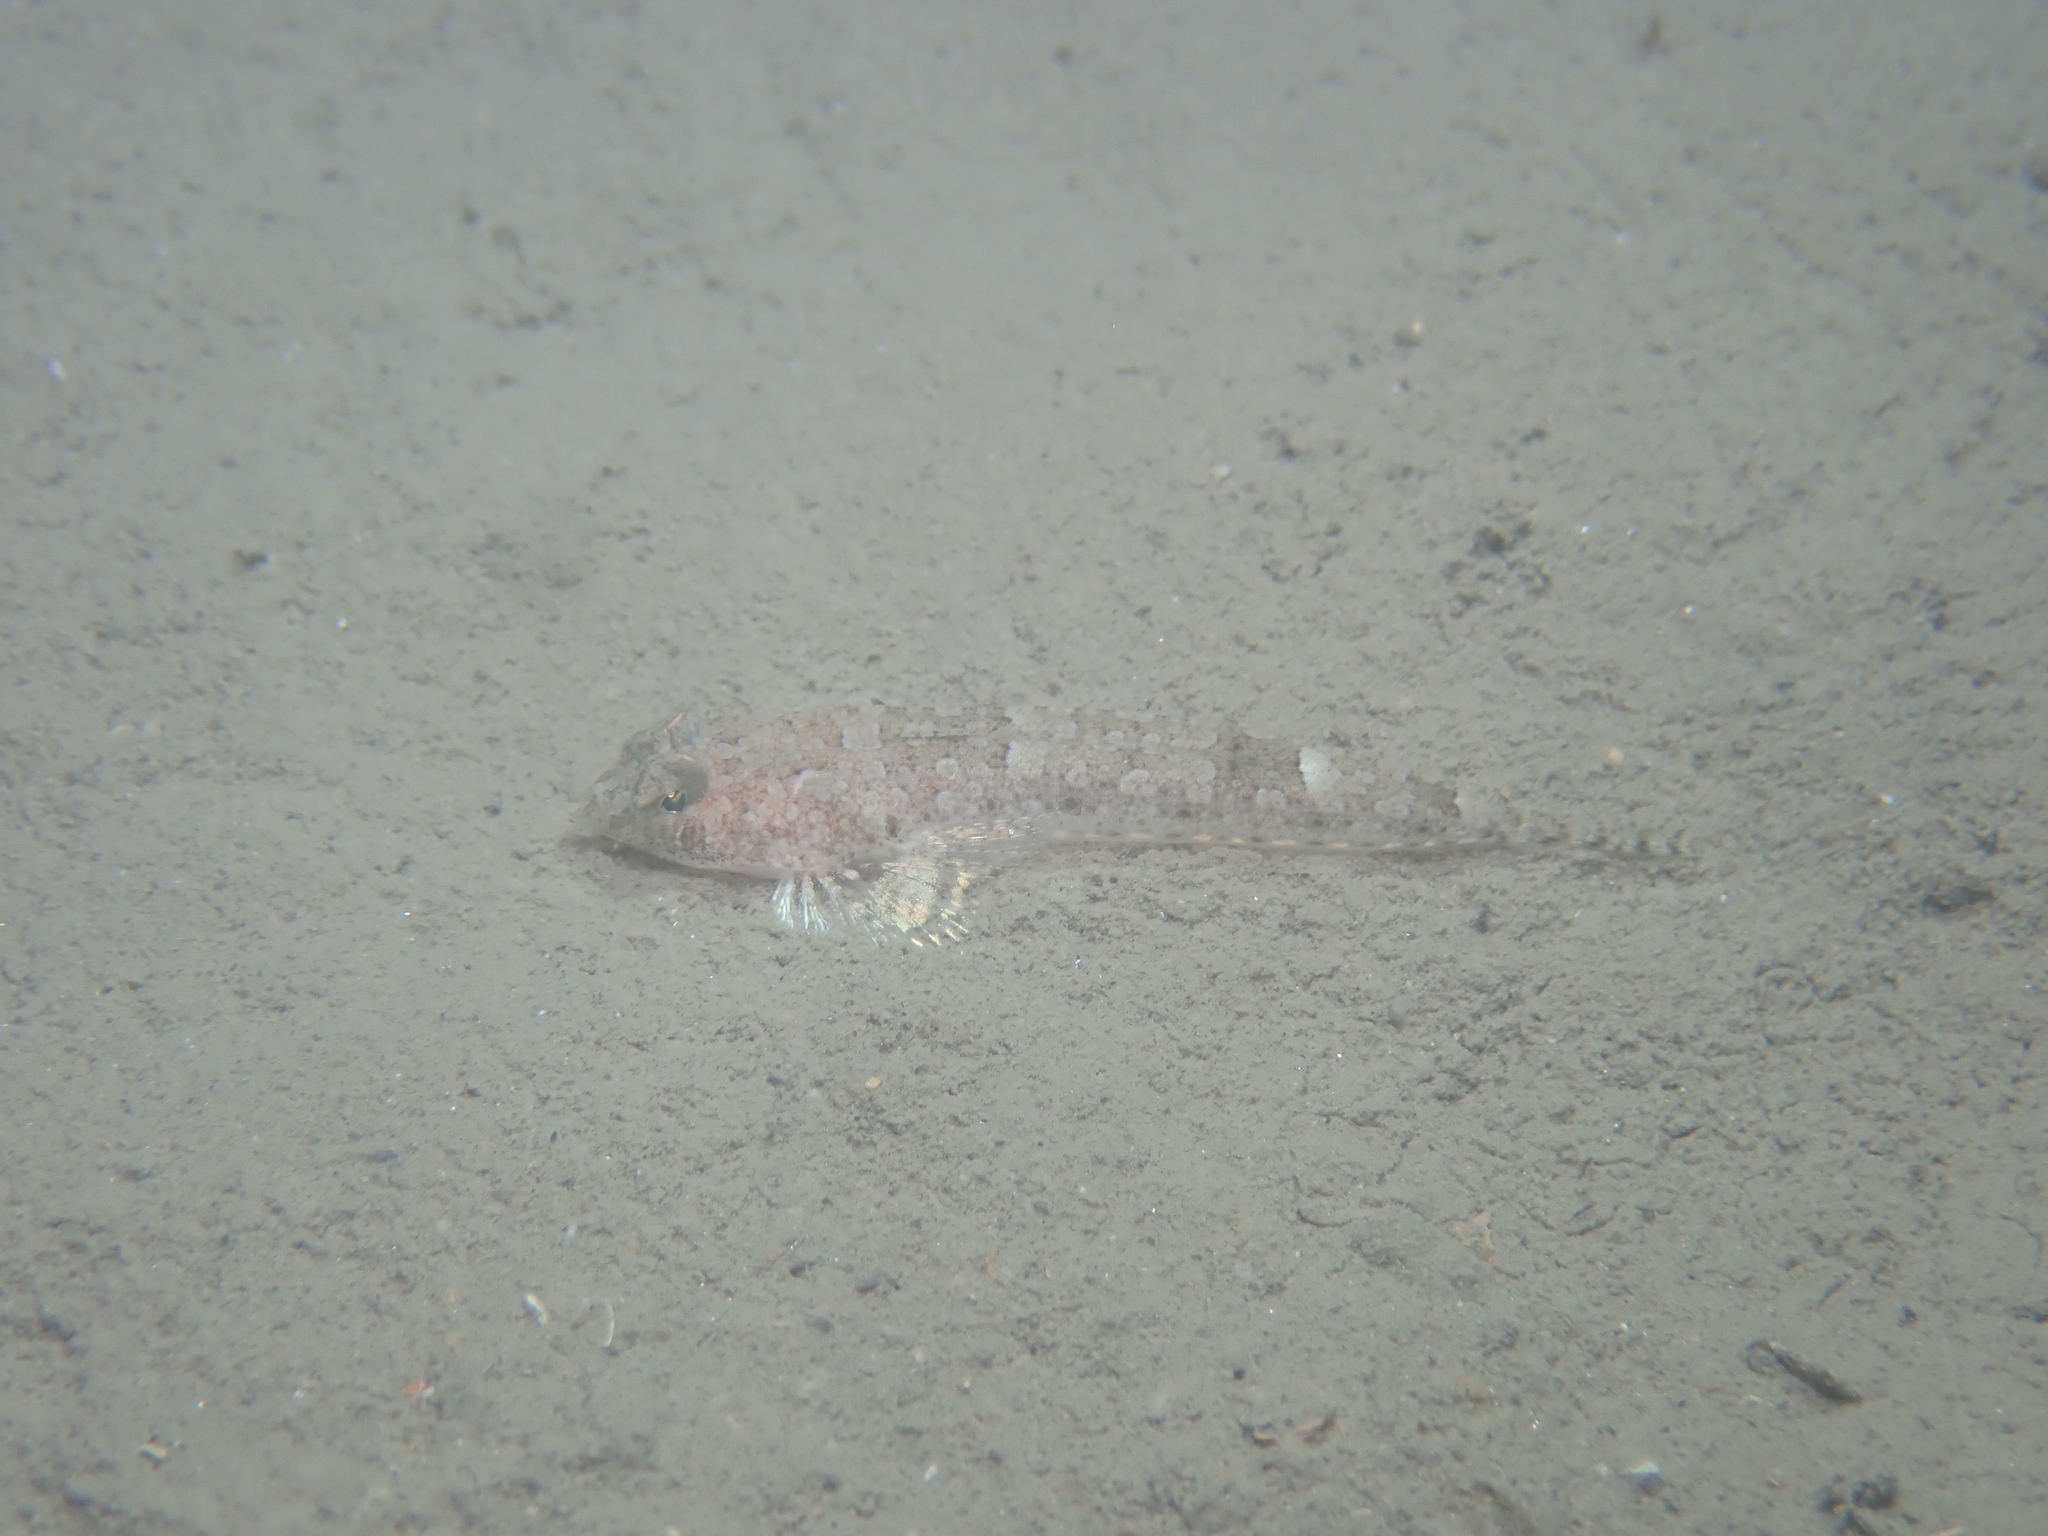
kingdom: Animalia
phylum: Chordata
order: Perciformes
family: Callionymidae
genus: Callionymus
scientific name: Callionymus risso
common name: Risso’s dragonet
